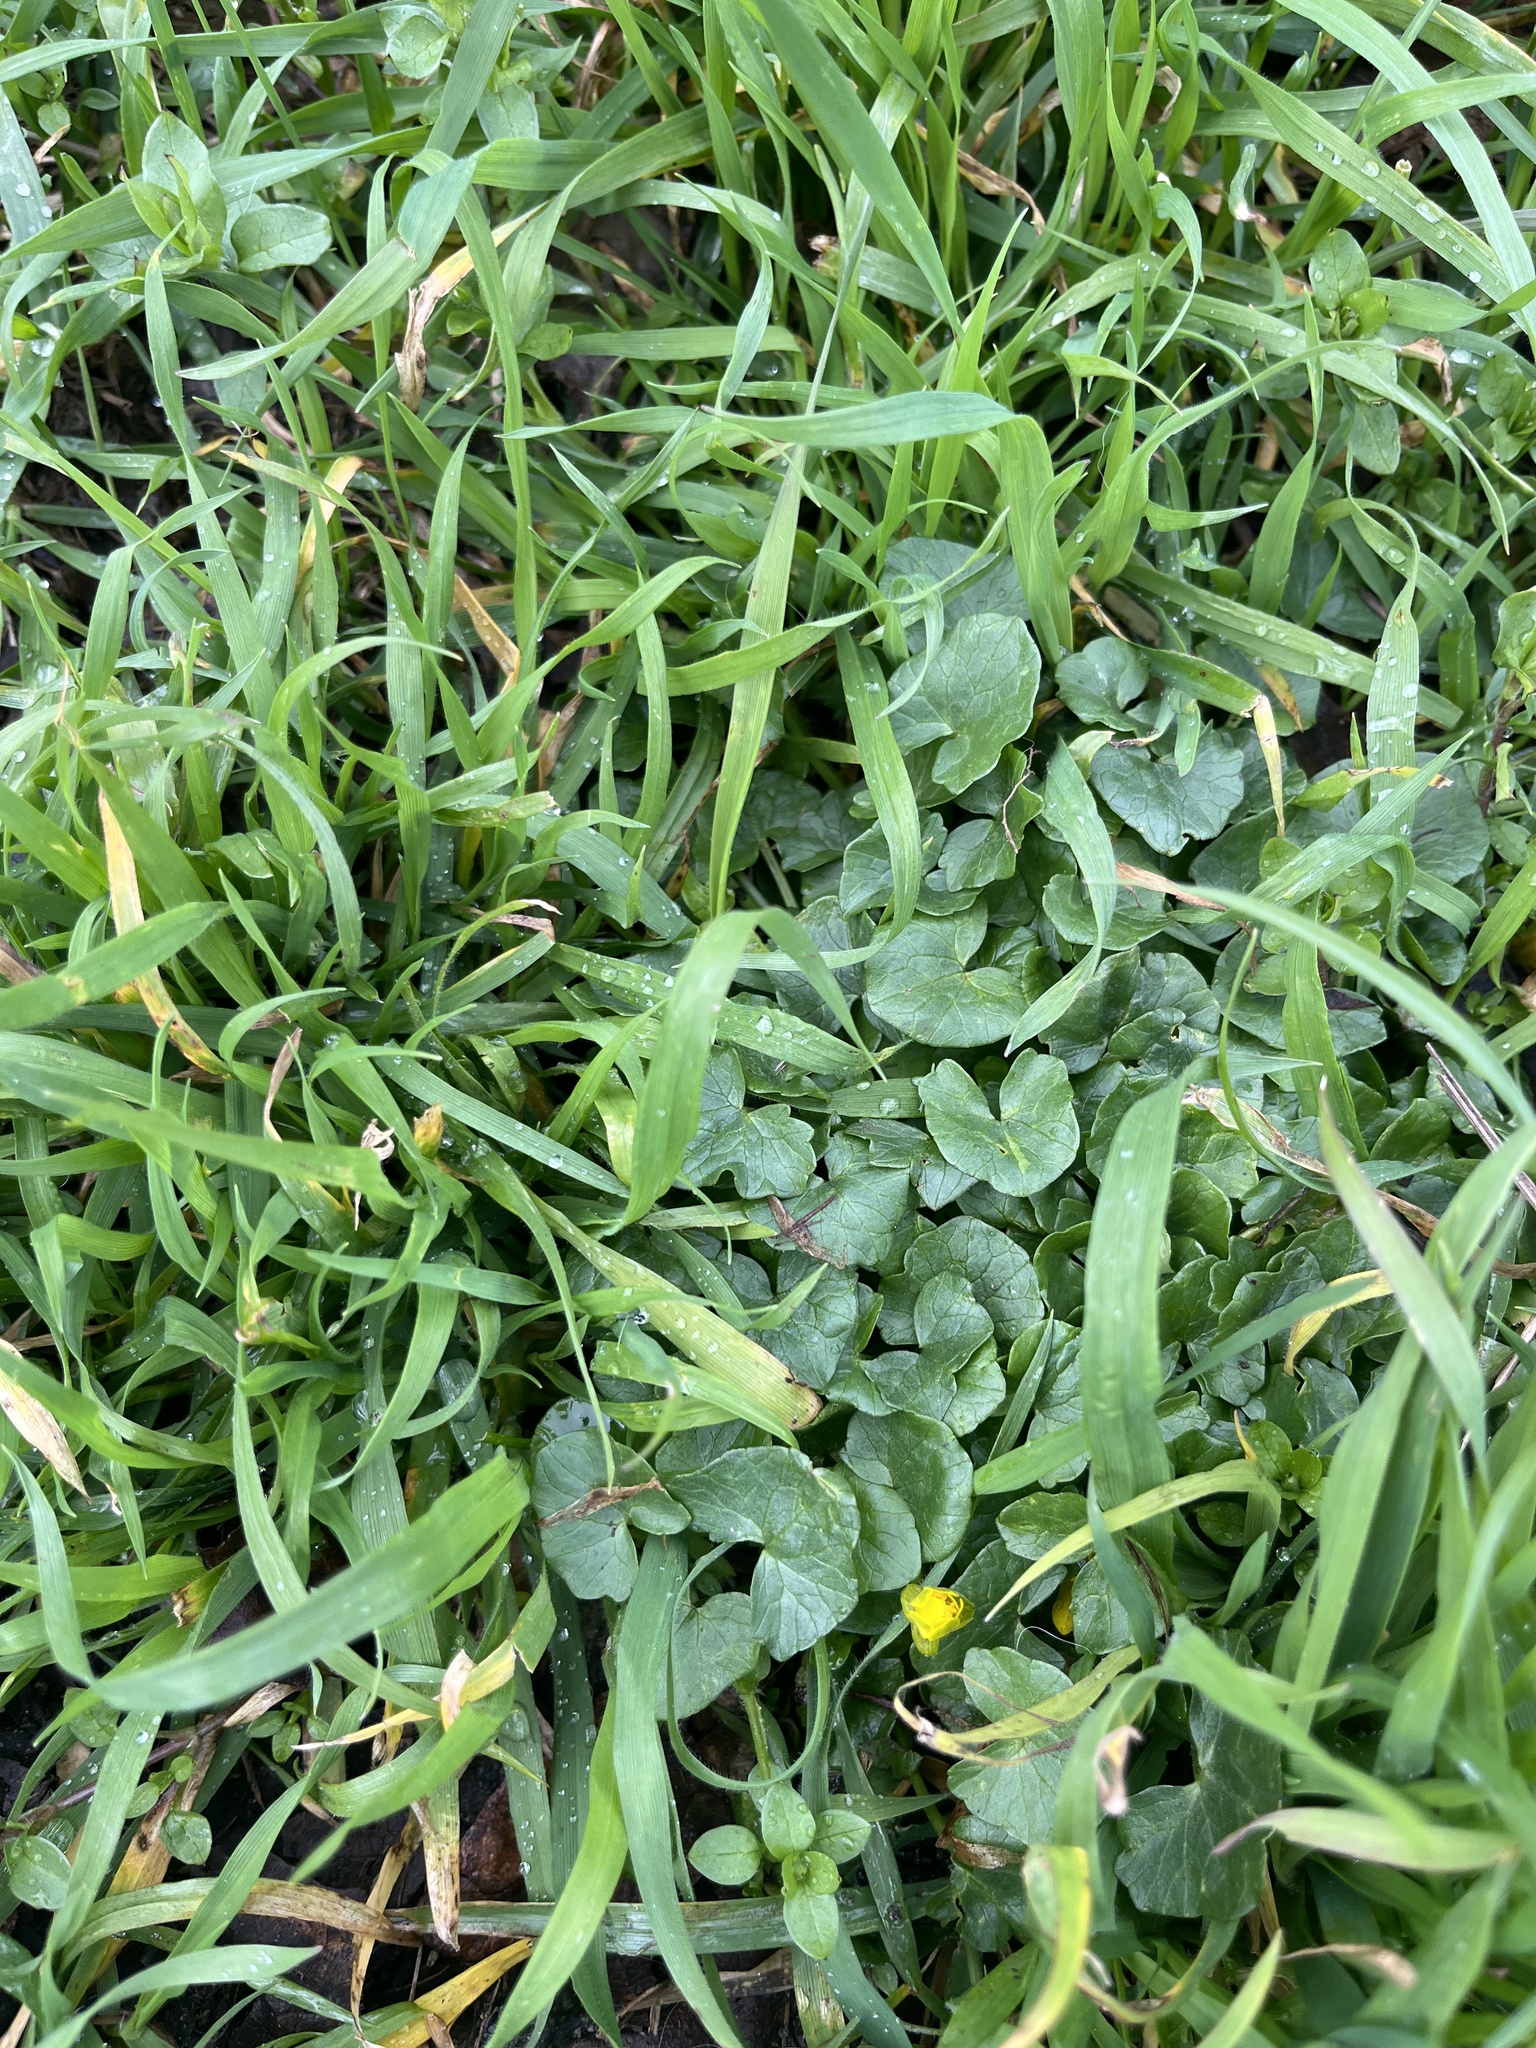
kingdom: Plantae
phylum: Tracheophyta
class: Magnoliopsida
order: Ranunculales
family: Ranunculaceae
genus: Ficaria
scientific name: Ficaria verna
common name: Lesser celandine
